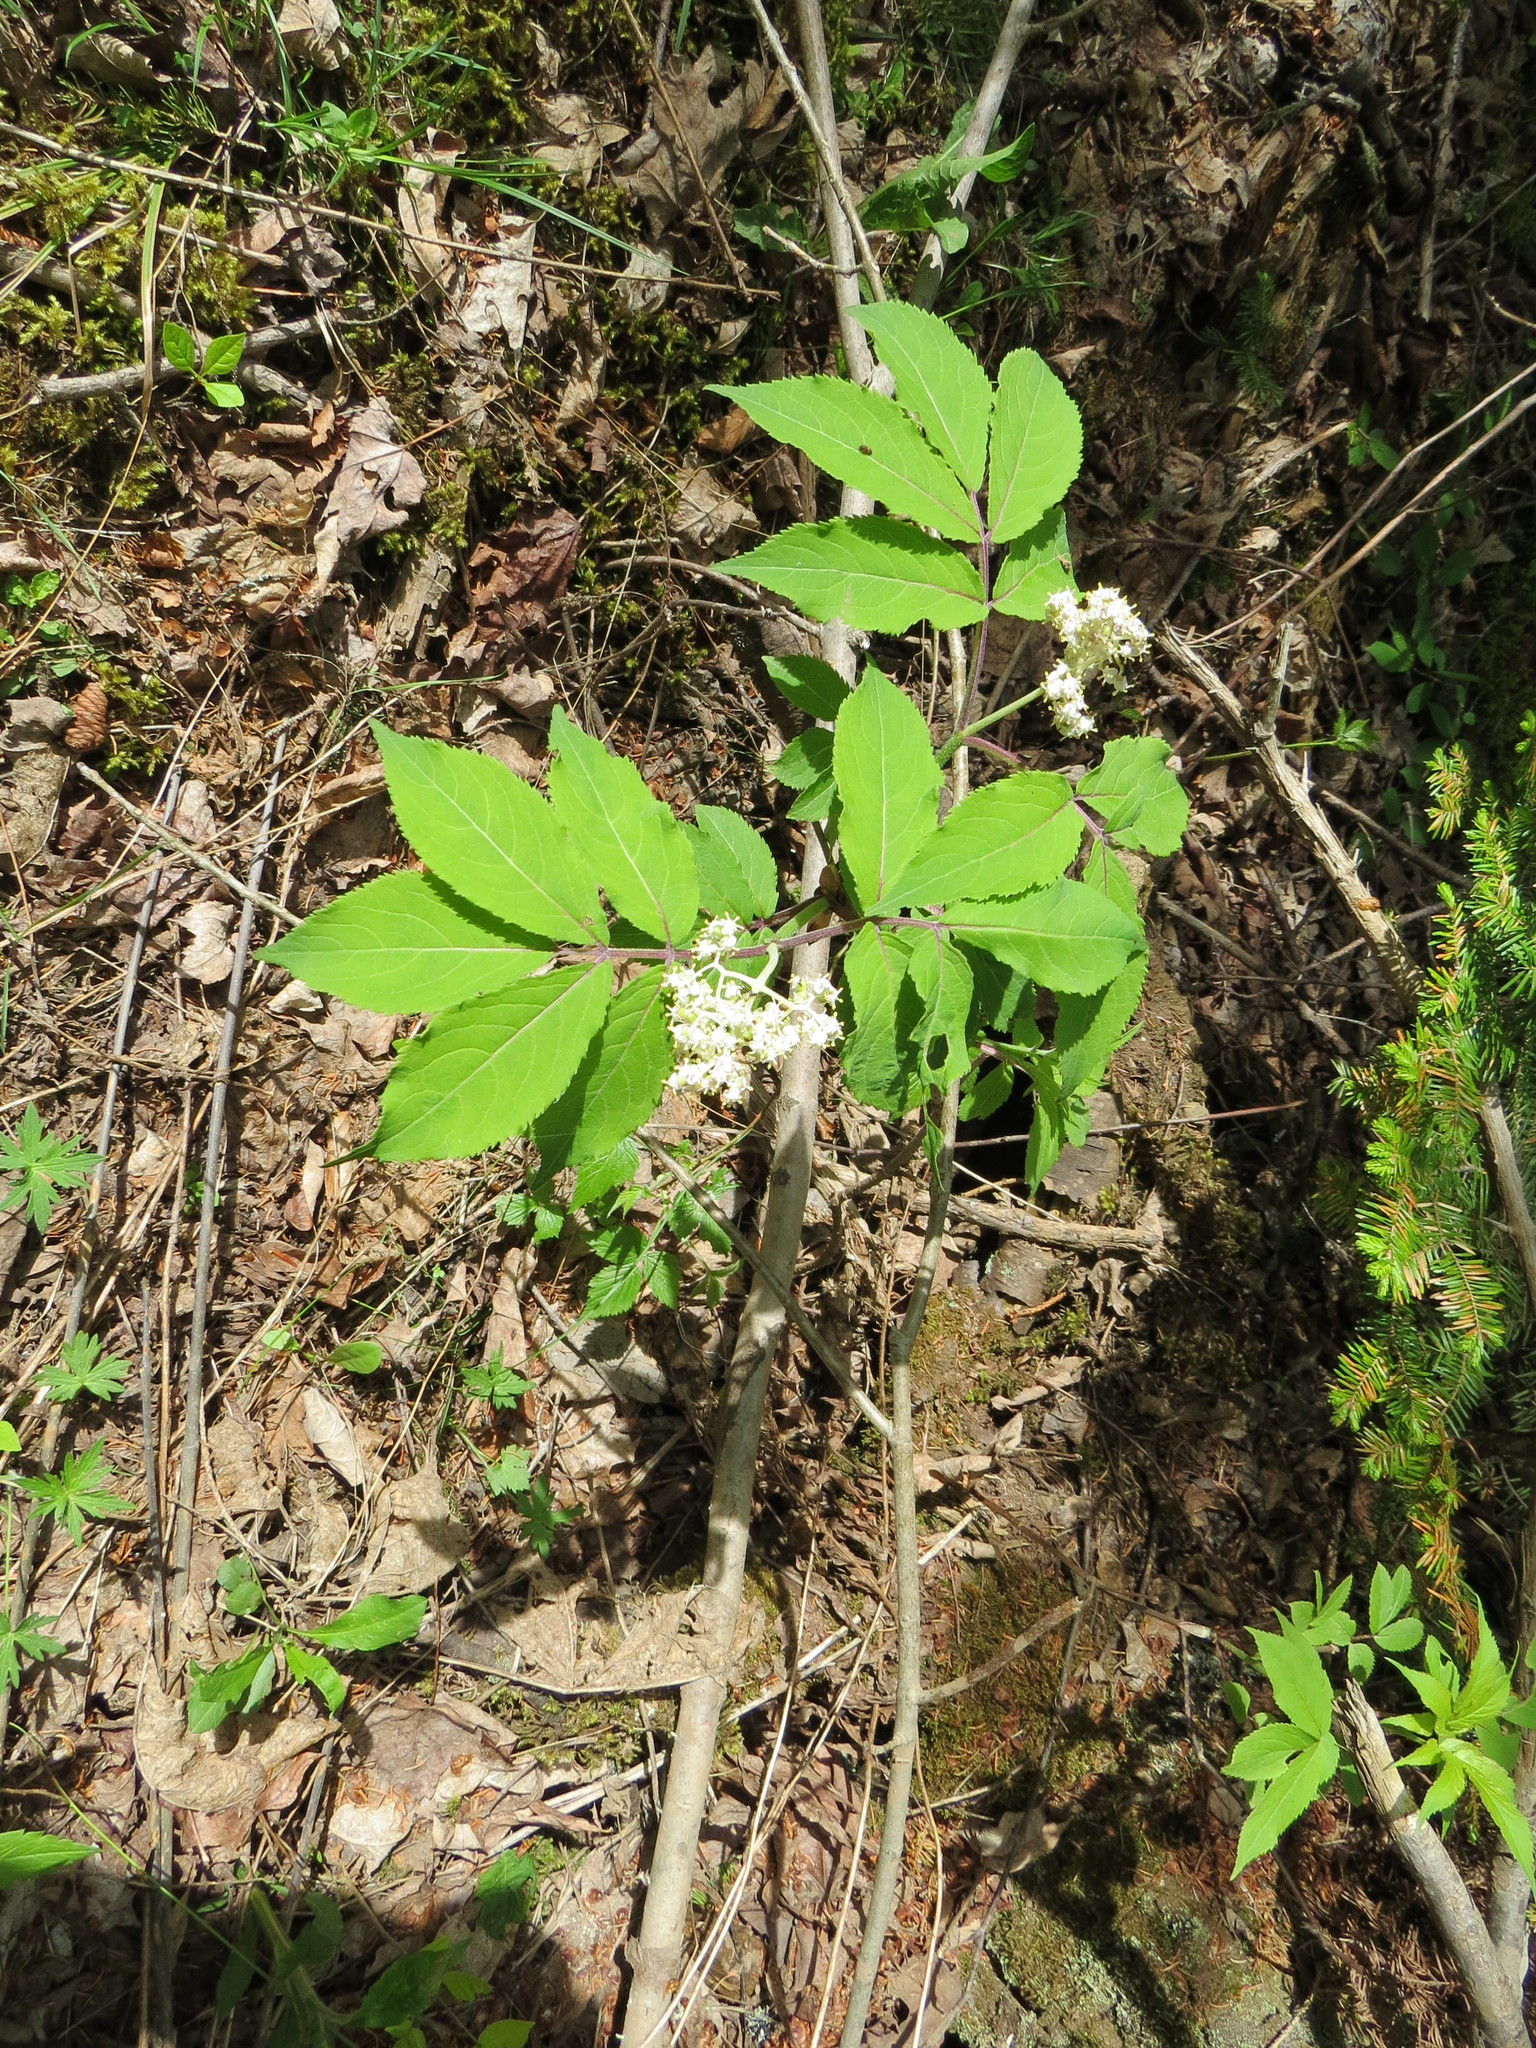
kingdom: Plantae
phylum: Tracheophyta
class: Magnoliopsida
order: Dipsacales
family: Viburnaceae
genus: Sambucus
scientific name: Sambucus racemosa
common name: Red-berried elder
